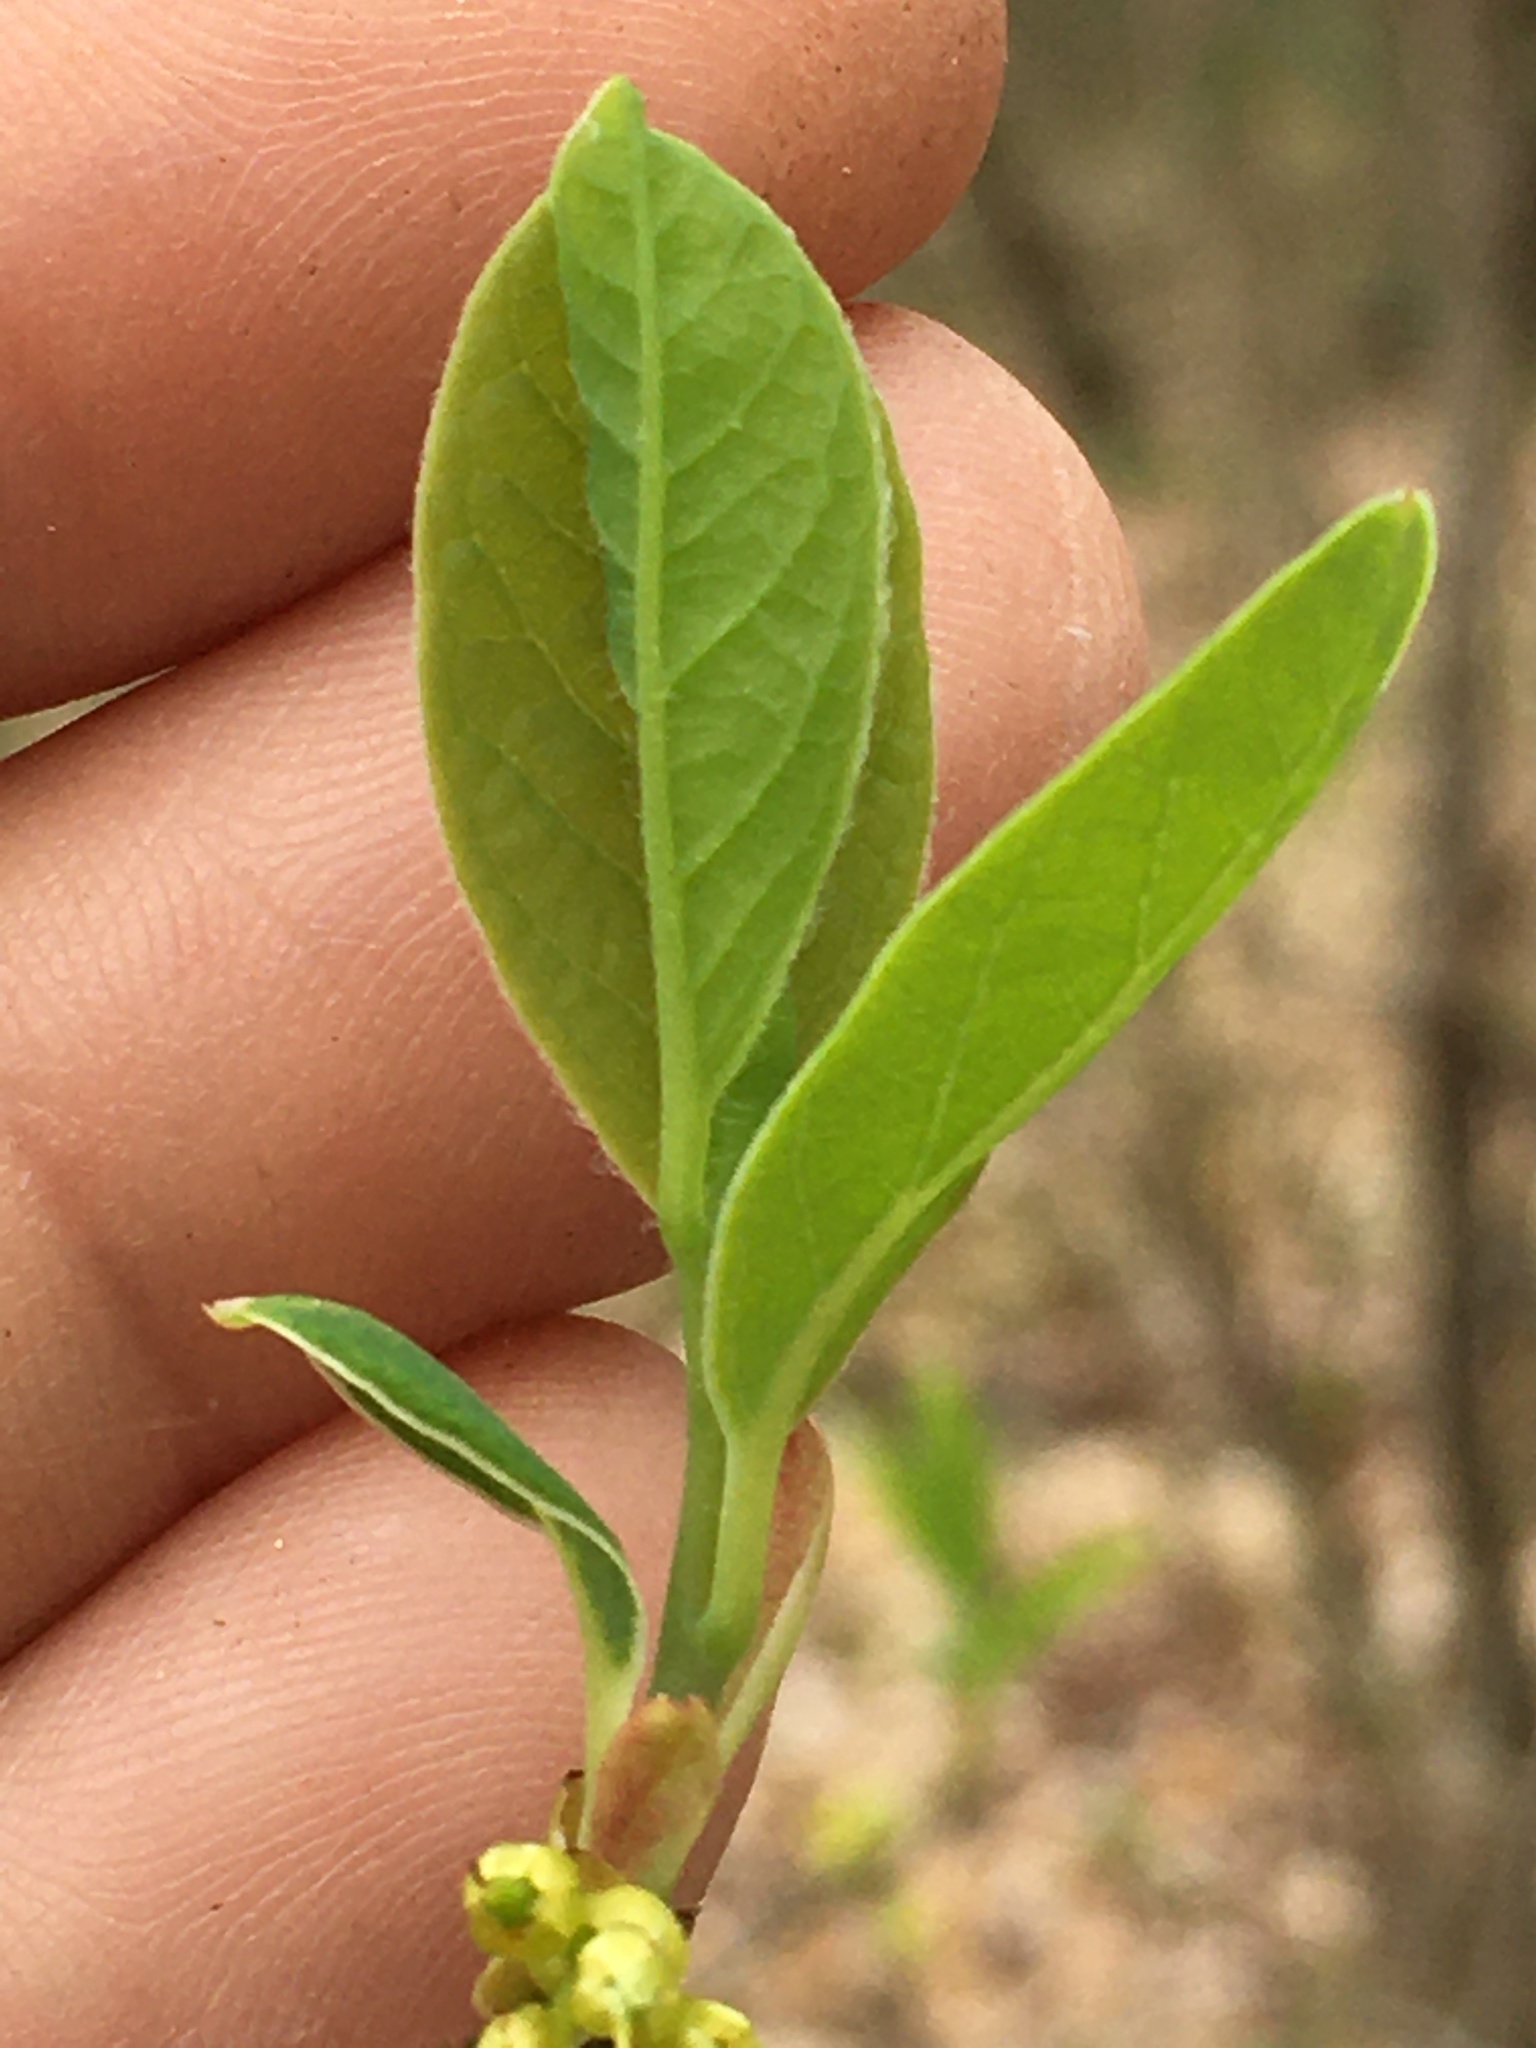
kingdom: Plantae
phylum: Tracheophyta
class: Magnoliopsida
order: Laurales
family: Lauraceae
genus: Lindera
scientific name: Lindera benzoin
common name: Spicebush
